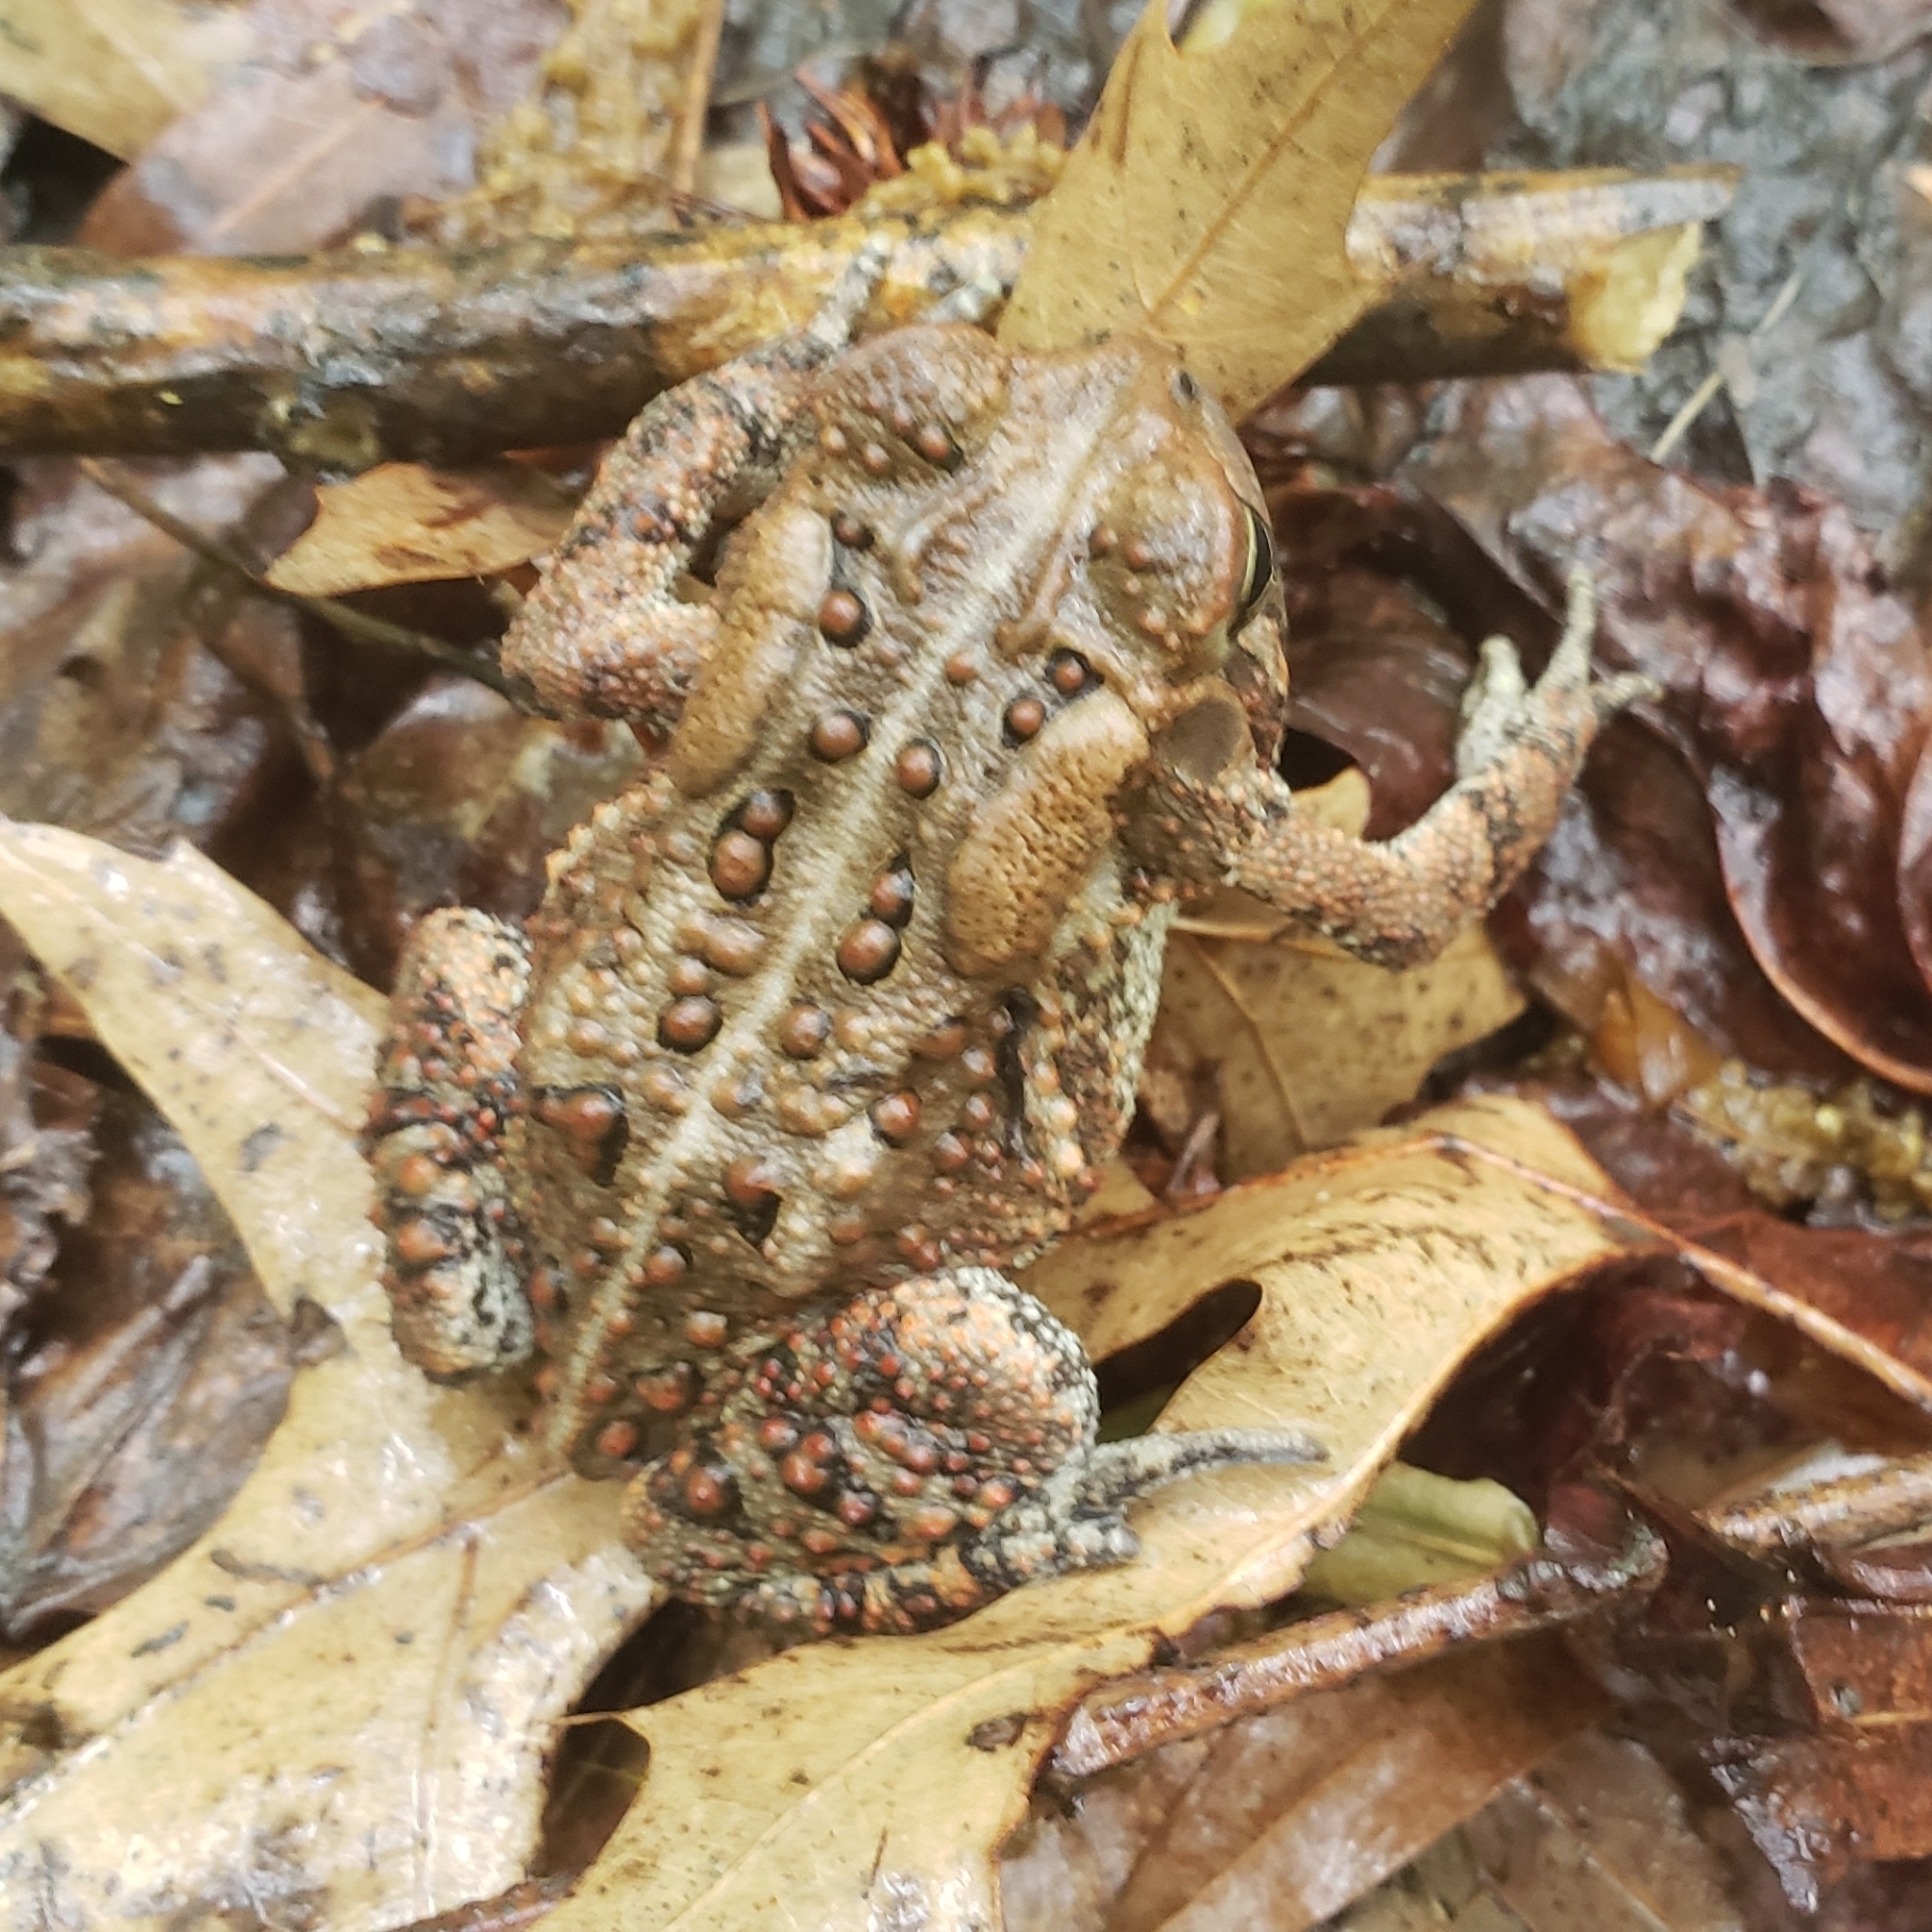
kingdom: Animalia
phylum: Chordata
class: Amphibia
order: Anura
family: Bufonidae
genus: Anaxyrus
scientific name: Anaxyrus americanus
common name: American toad
